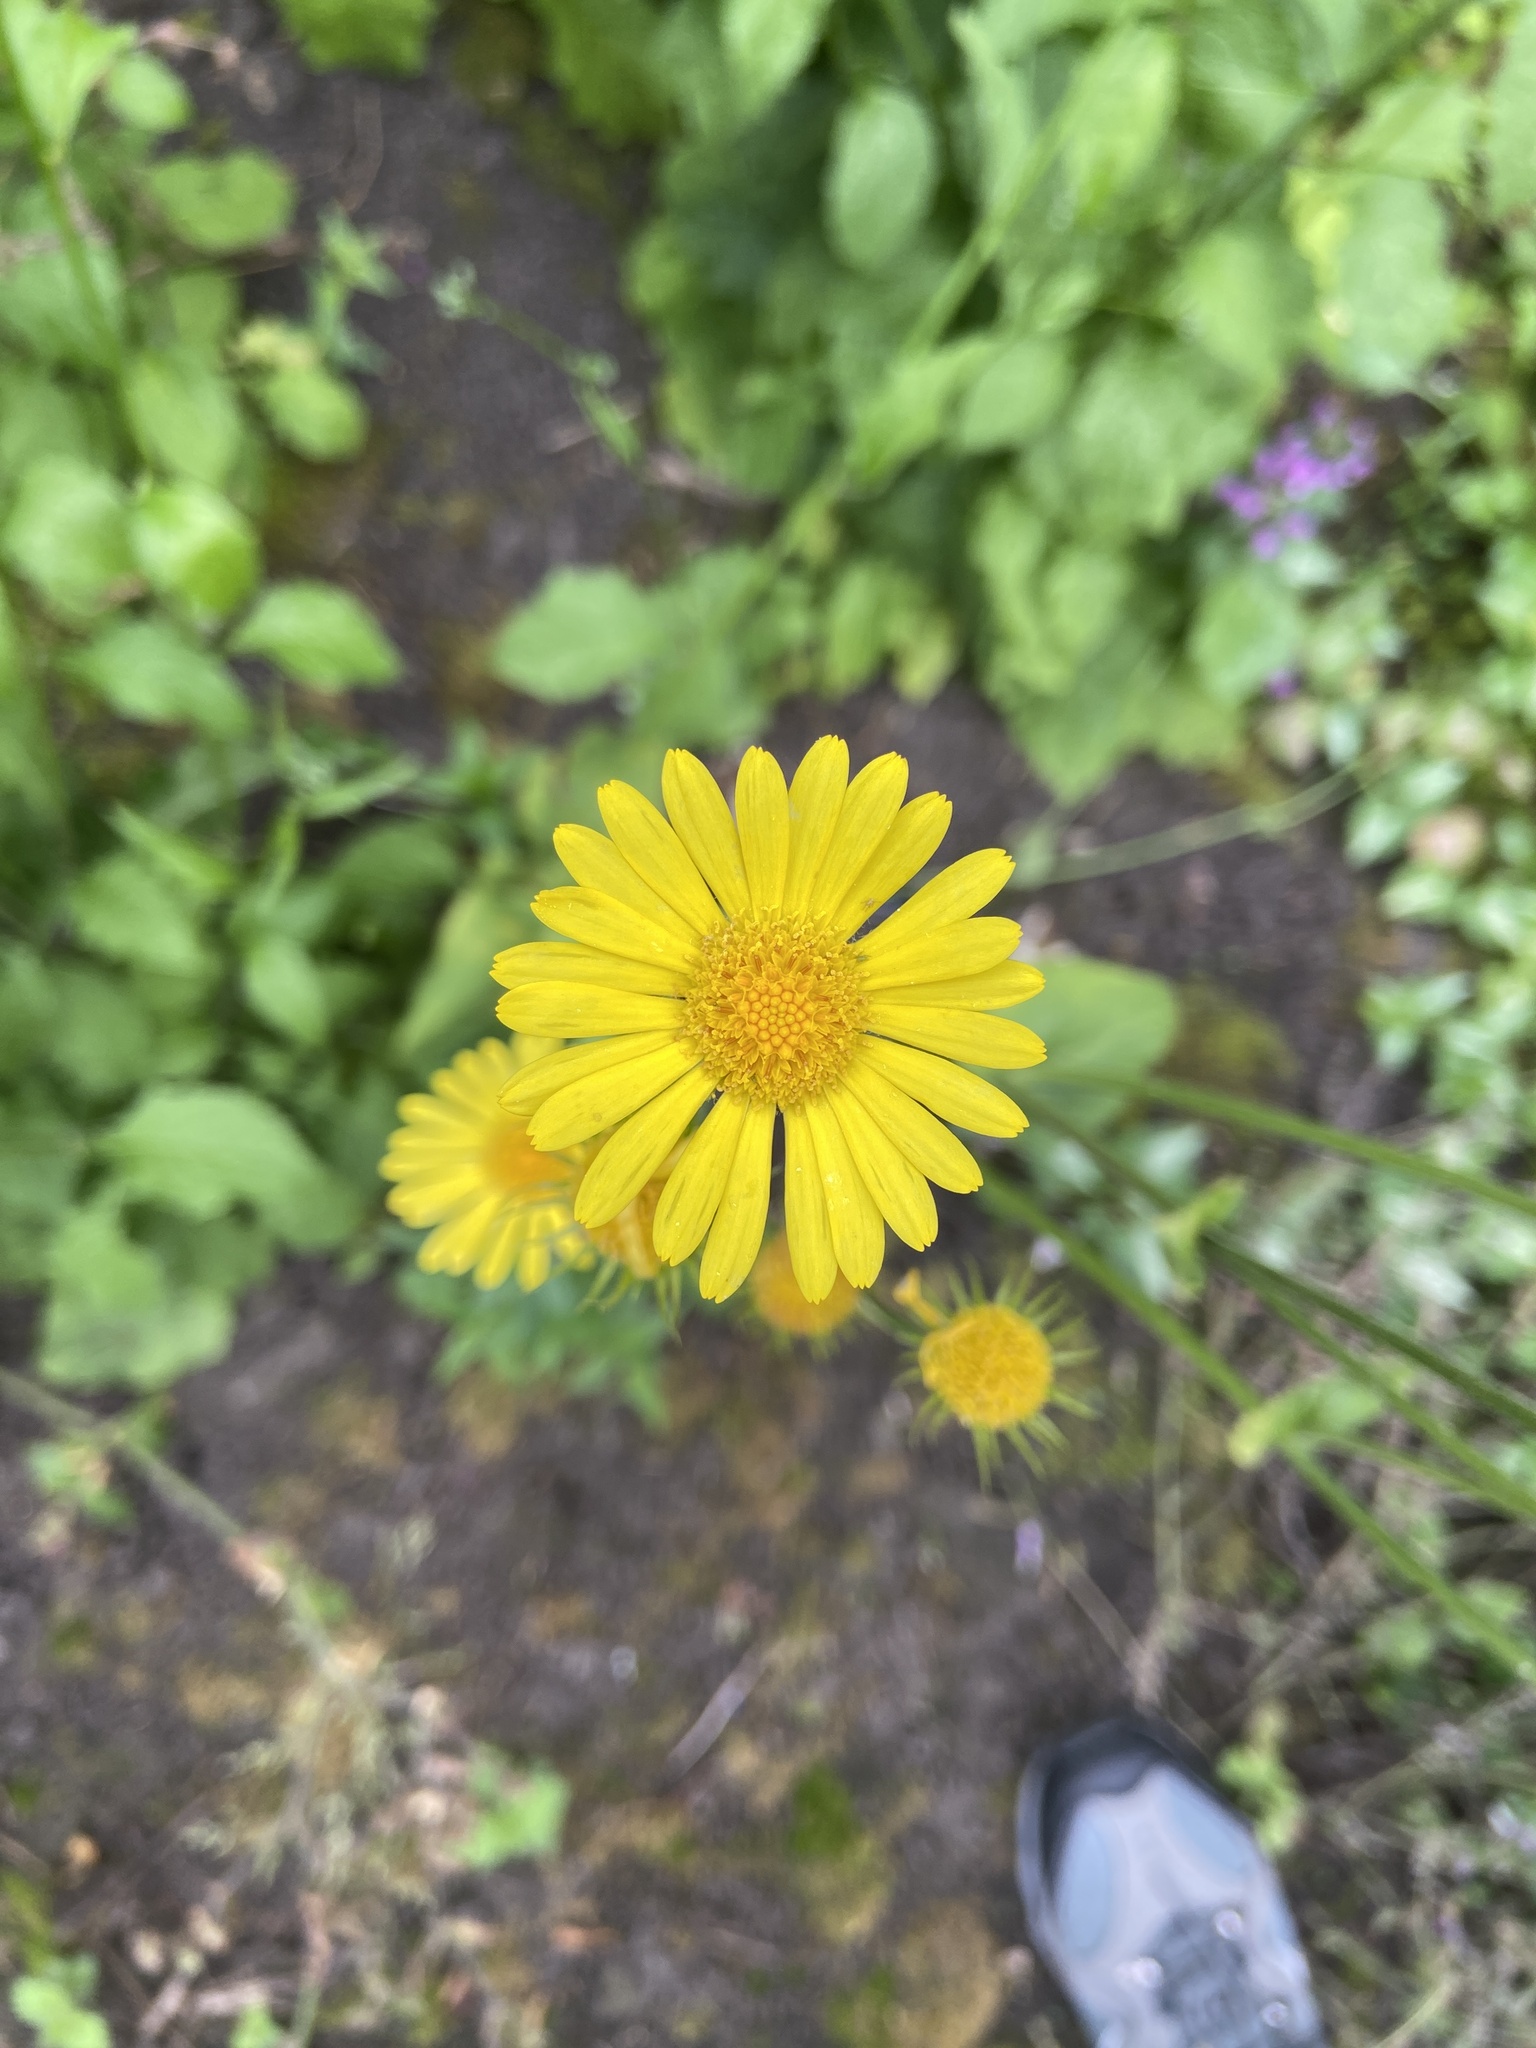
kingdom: Plantae
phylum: Tracheophyta
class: Magnoliopsida
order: Asterales
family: Asteraceae
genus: Doronicum
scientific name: Doronicum pardalianches
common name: Leopard's-bane
